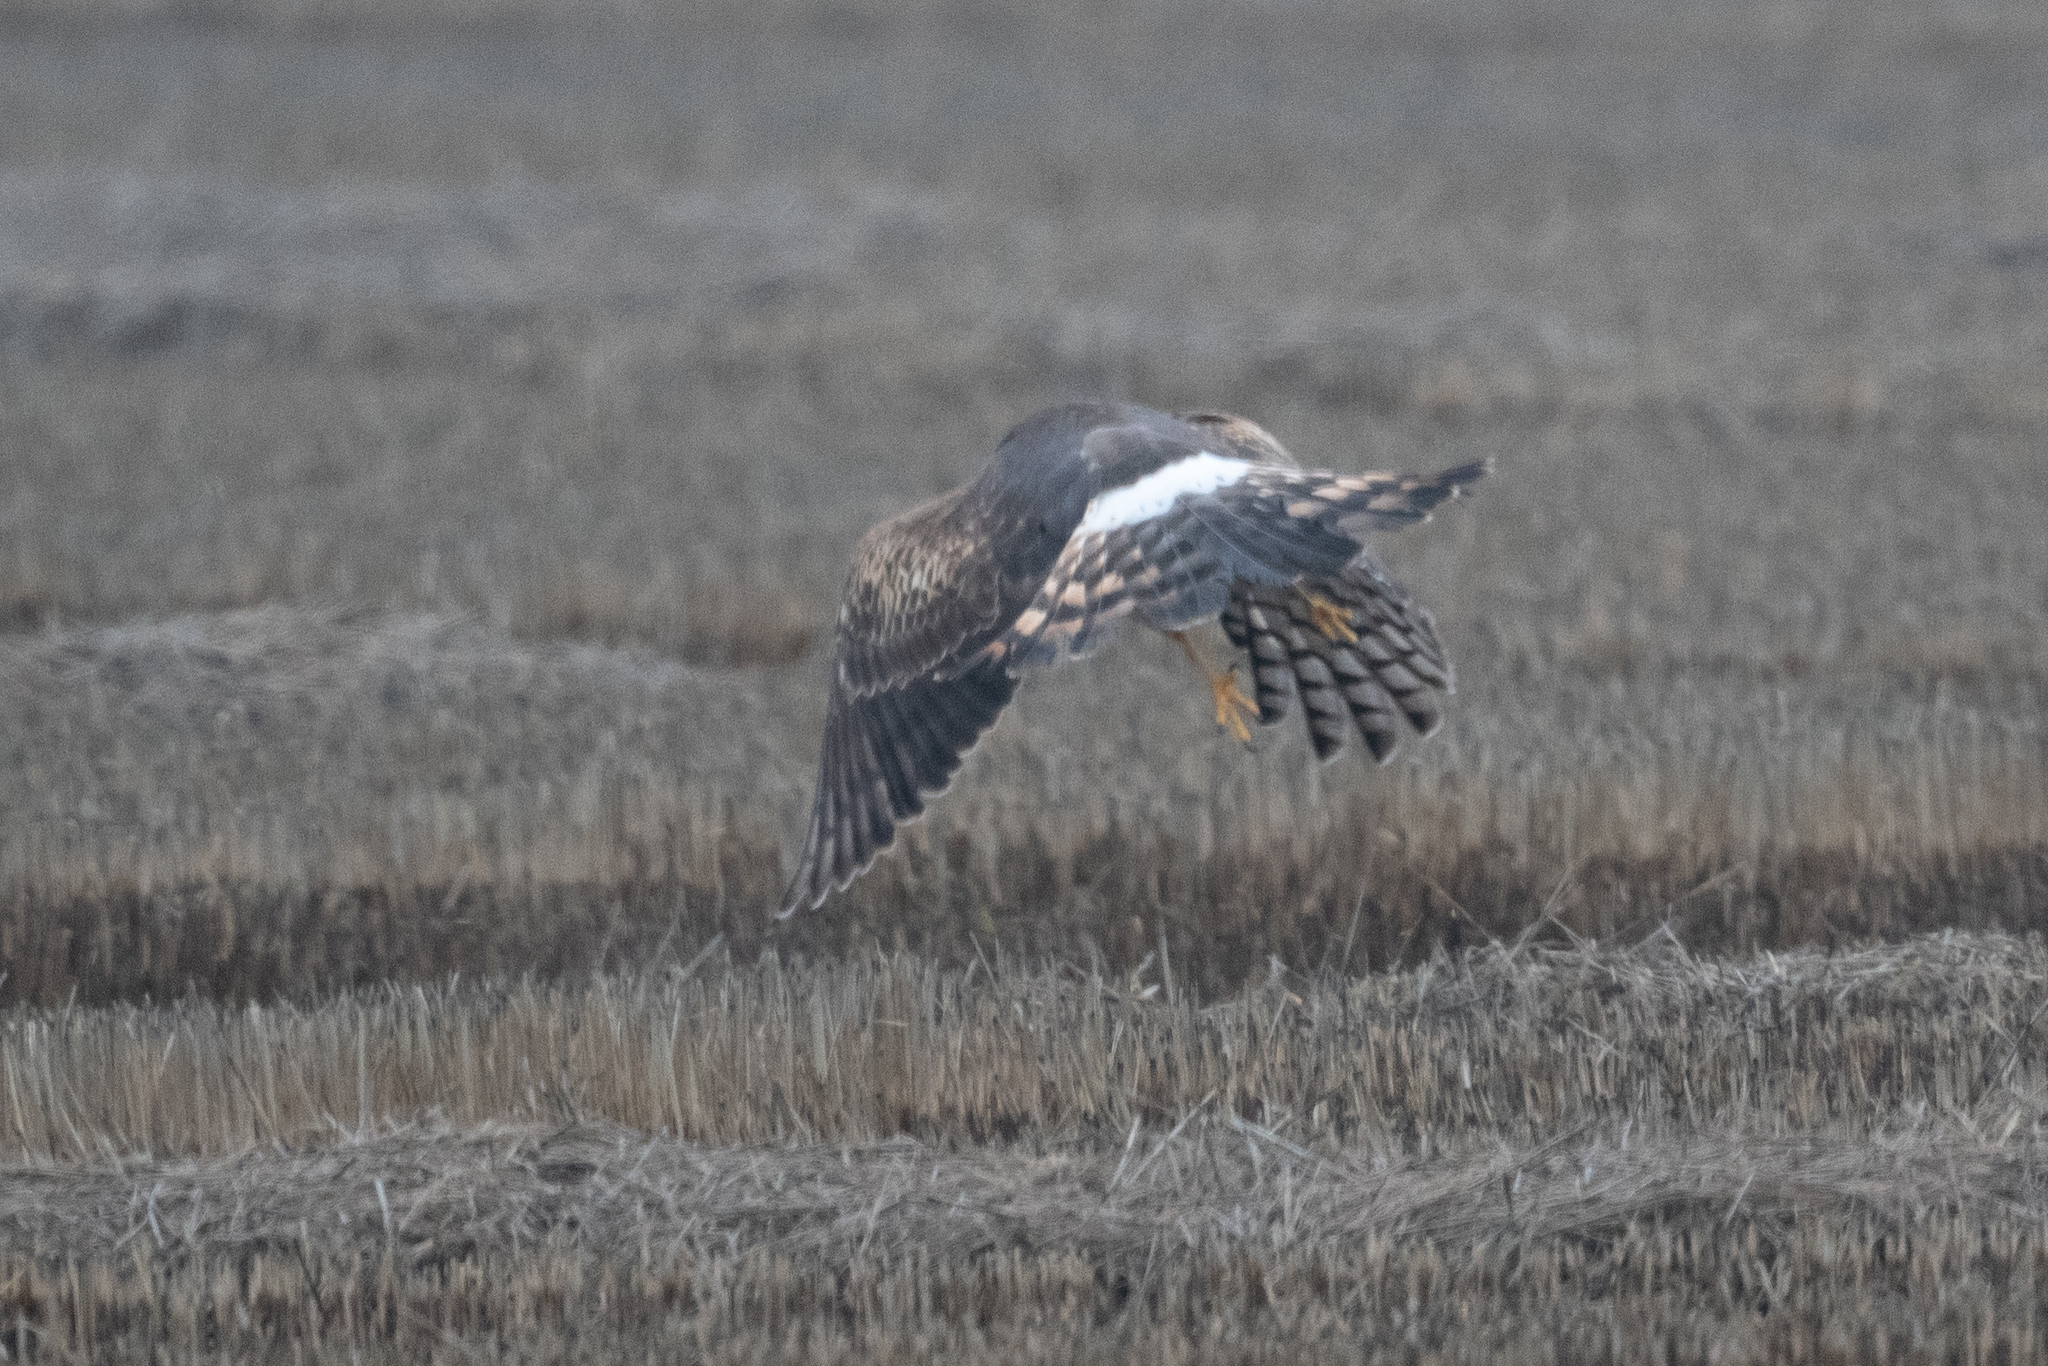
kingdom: Animalia
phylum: Chordata
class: Aves
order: Accipitriformes
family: Accipitridae
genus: Circus
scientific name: Circus cyaneus
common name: Hen harrier
